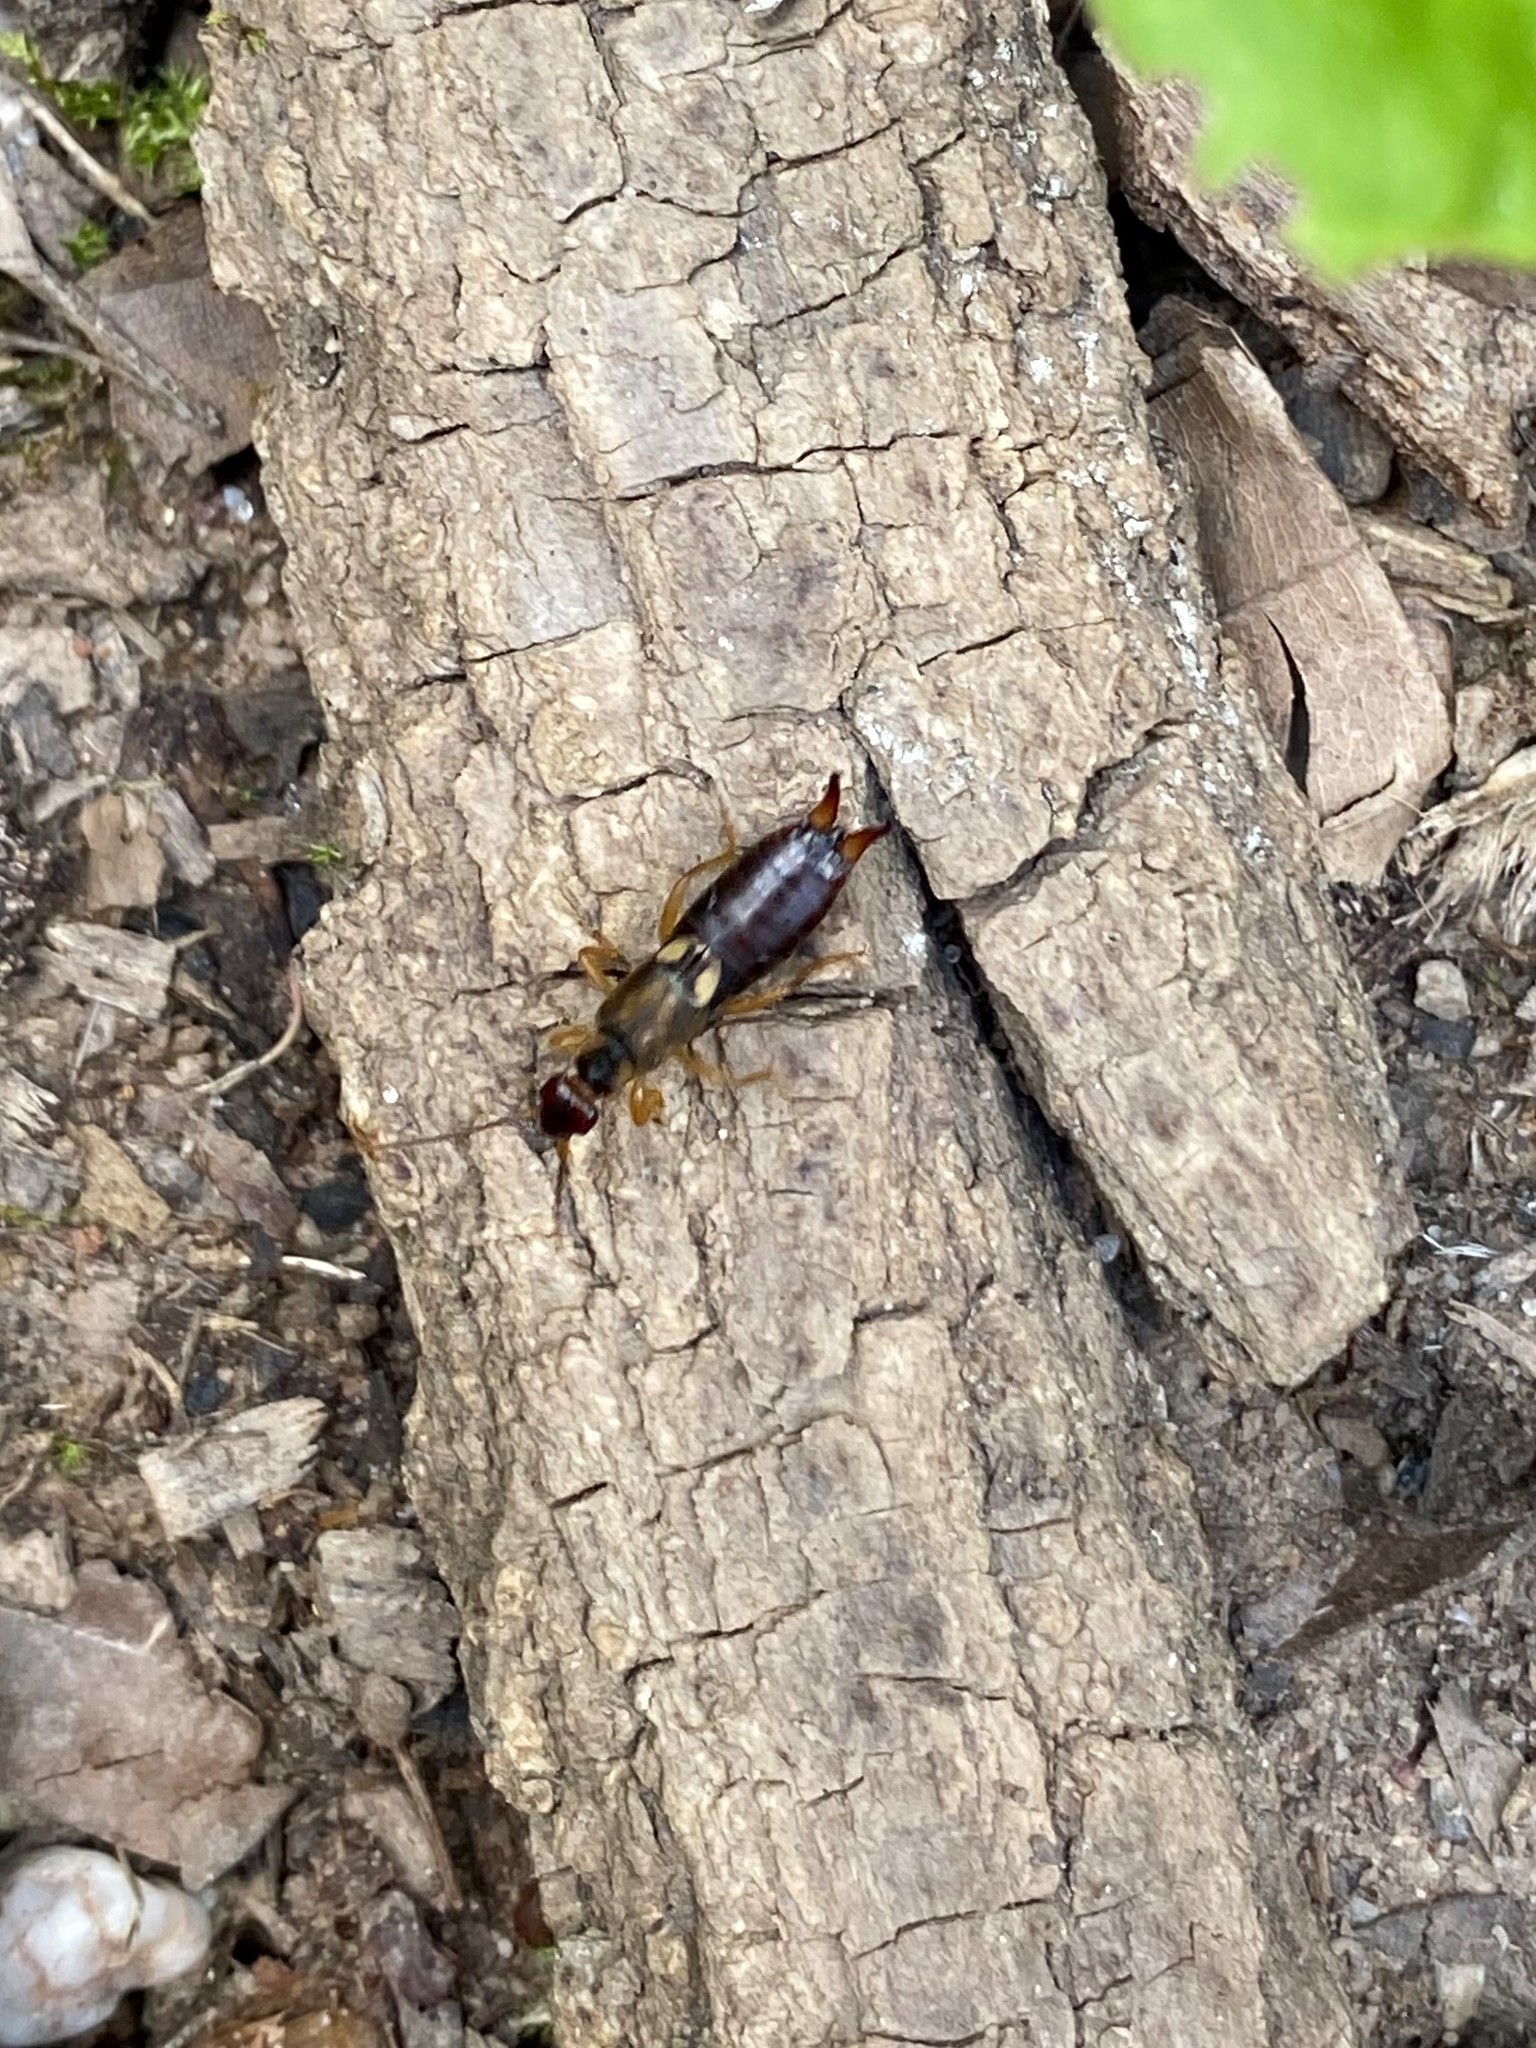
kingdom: Animalia
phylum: Arthropoda
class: Insecta
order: Dermaptera
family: Forficulidae
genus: Forficula
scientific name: Forficula
